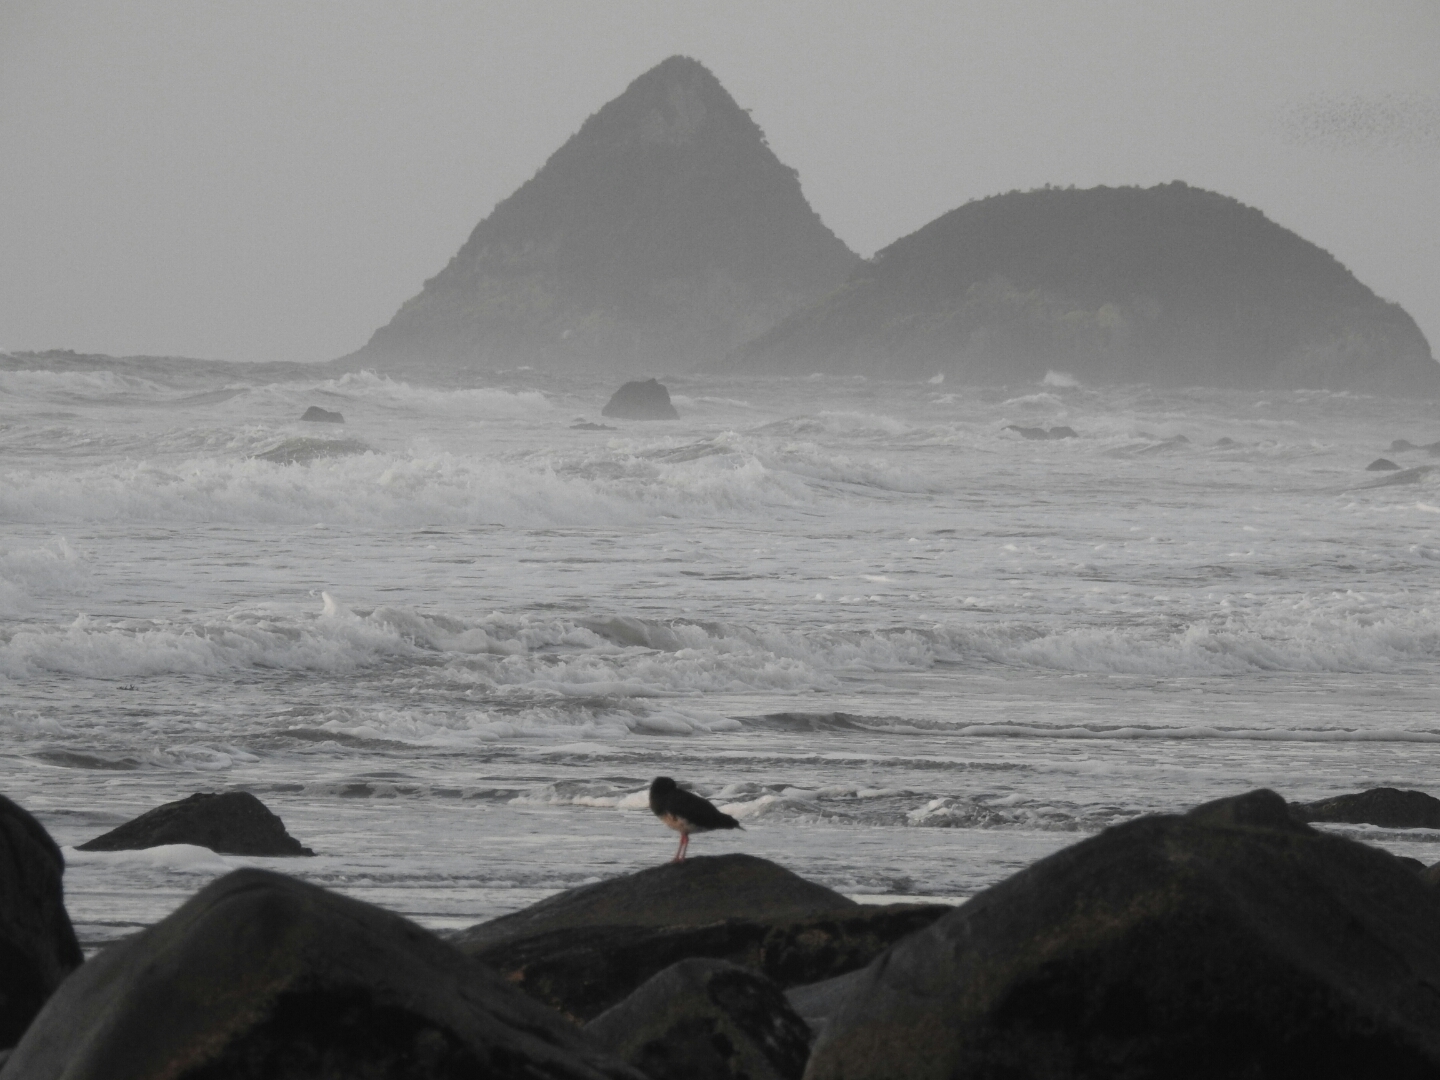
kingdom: Animalia
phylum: Chordata
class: Aves
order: Charadriiformes
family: Haematopodidae
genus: Haematopus
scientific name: Haematopus unicolor
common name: Variable oystercatcher
